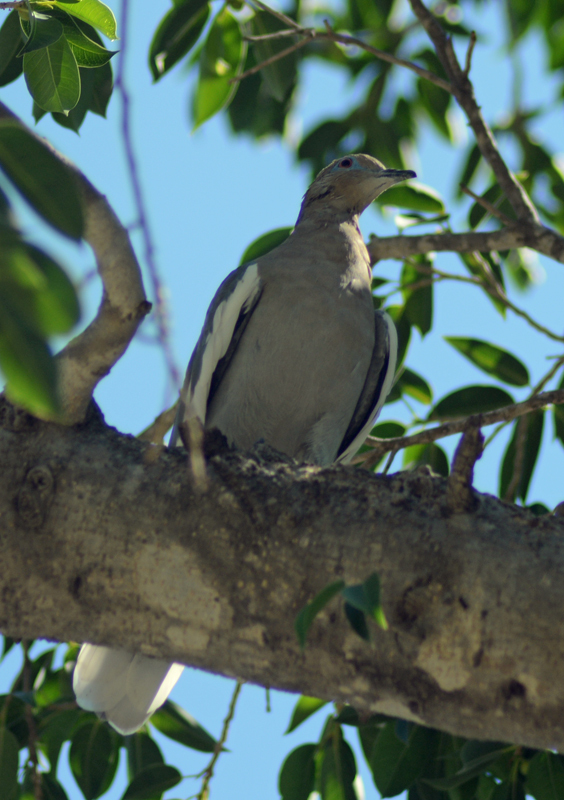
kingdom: Animalia
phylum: Chordata
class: Aves
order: Columbiformes
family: Columbidae
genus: Zenaida
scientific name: Zenaida asiatica
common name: White-winged dove
